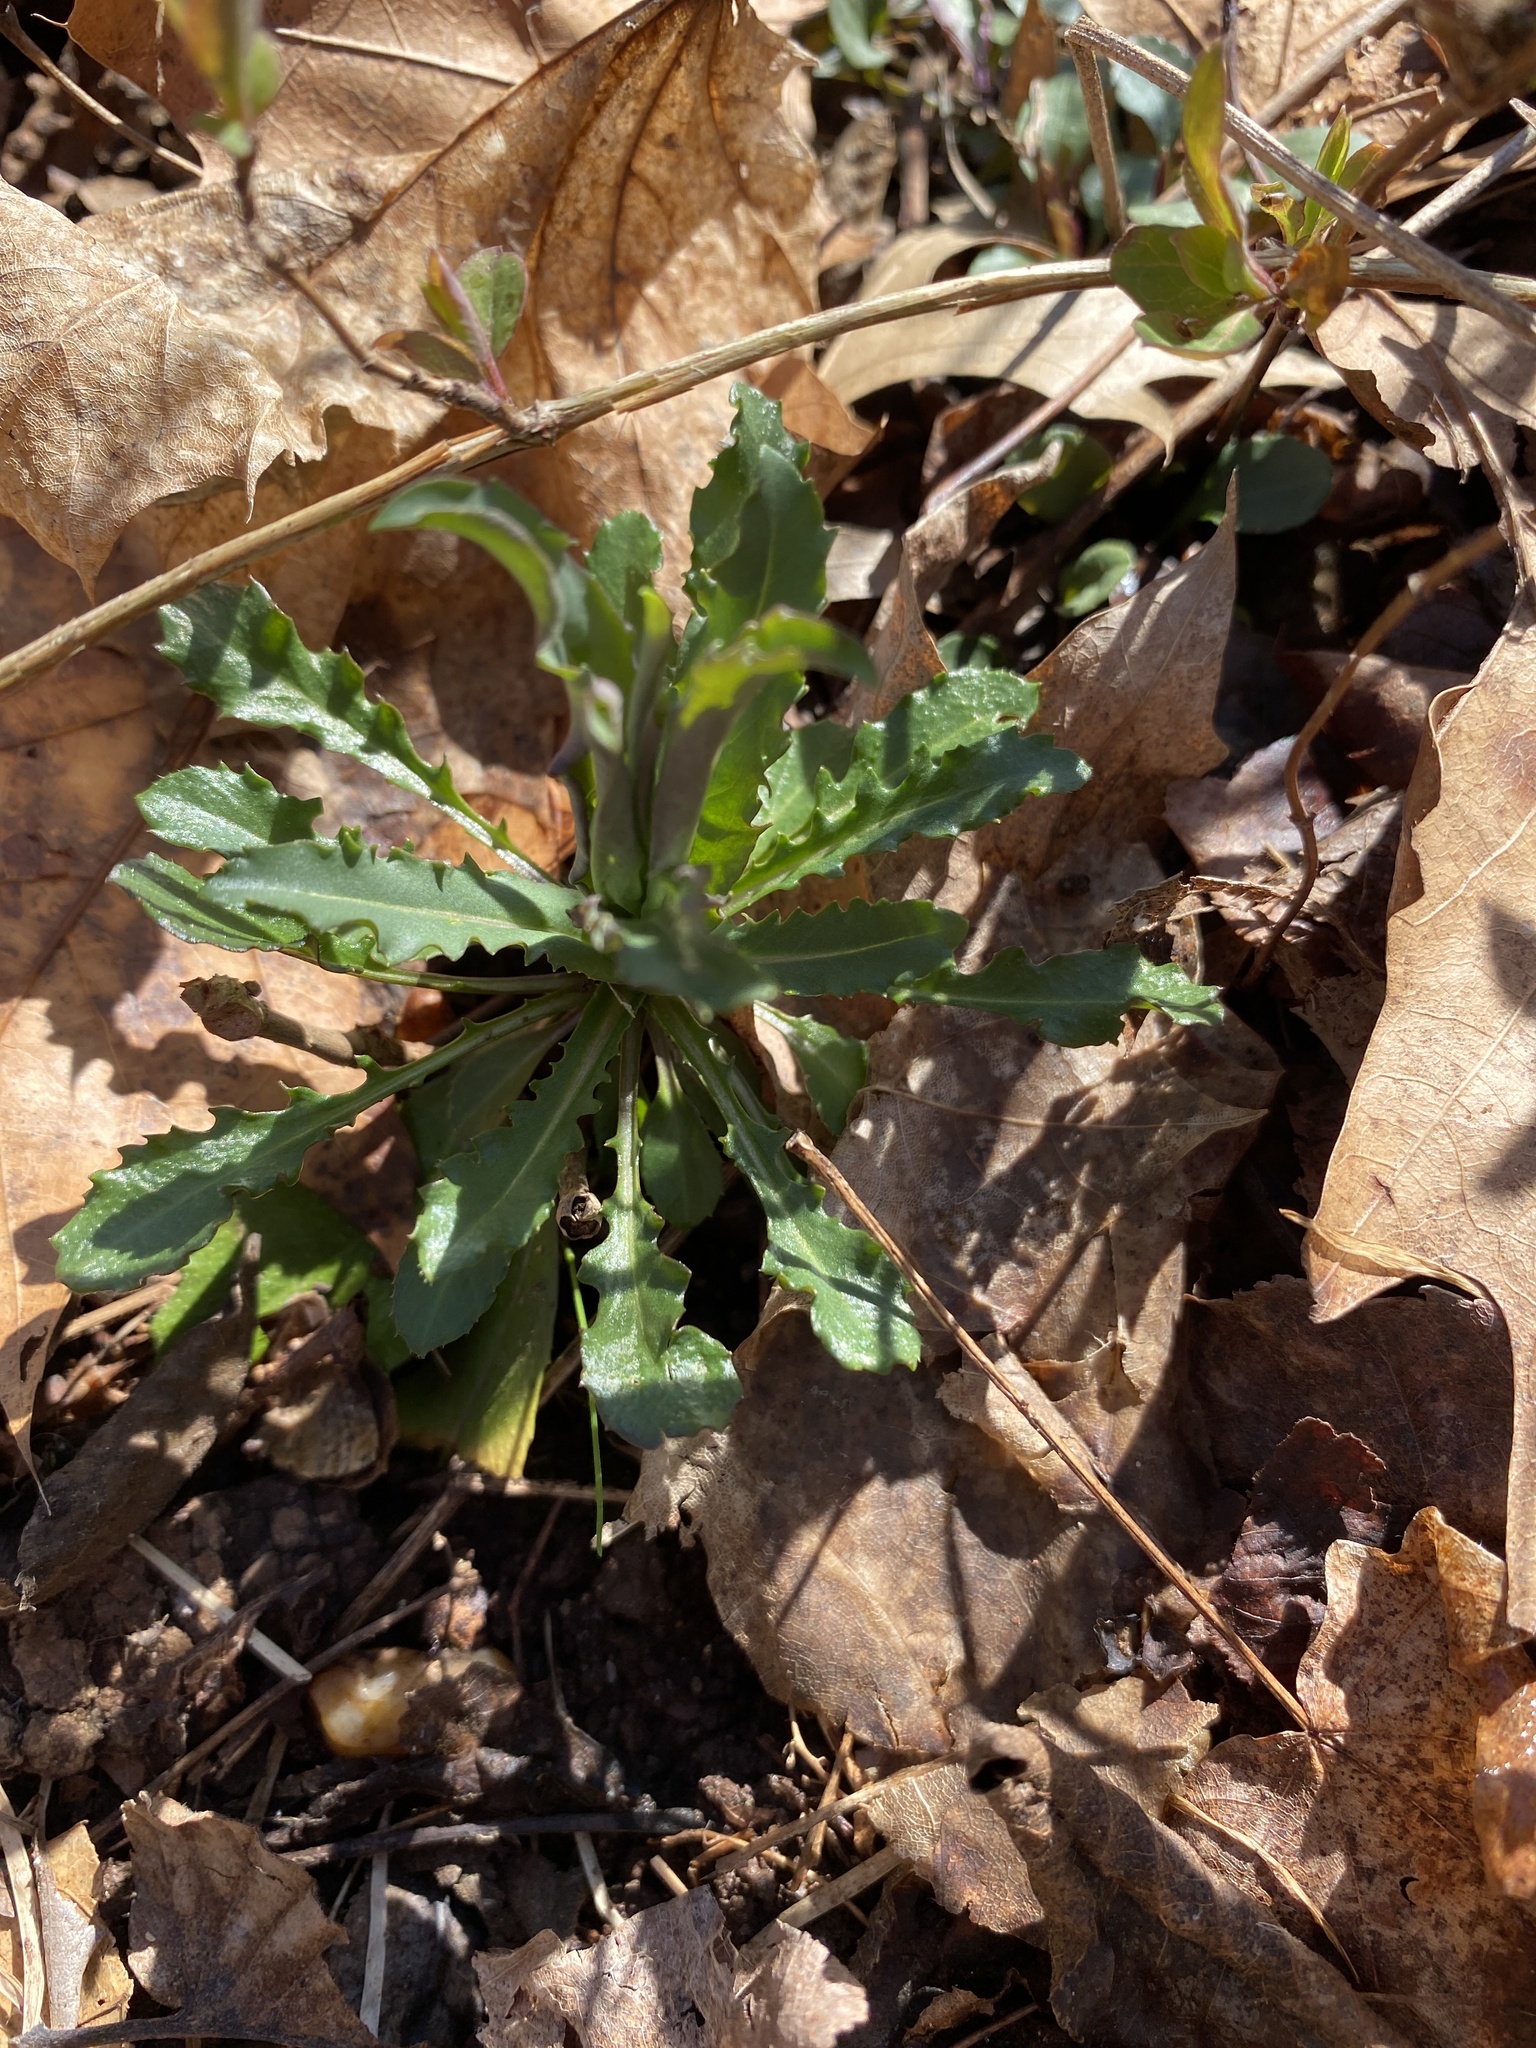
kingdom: Plantae
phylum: Tracheophyta
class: Magnoliopsida
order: Brassicales
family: Brassicaceae
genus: Borodinia
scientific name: Borodinia laevigata
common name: Smooth rockcress
